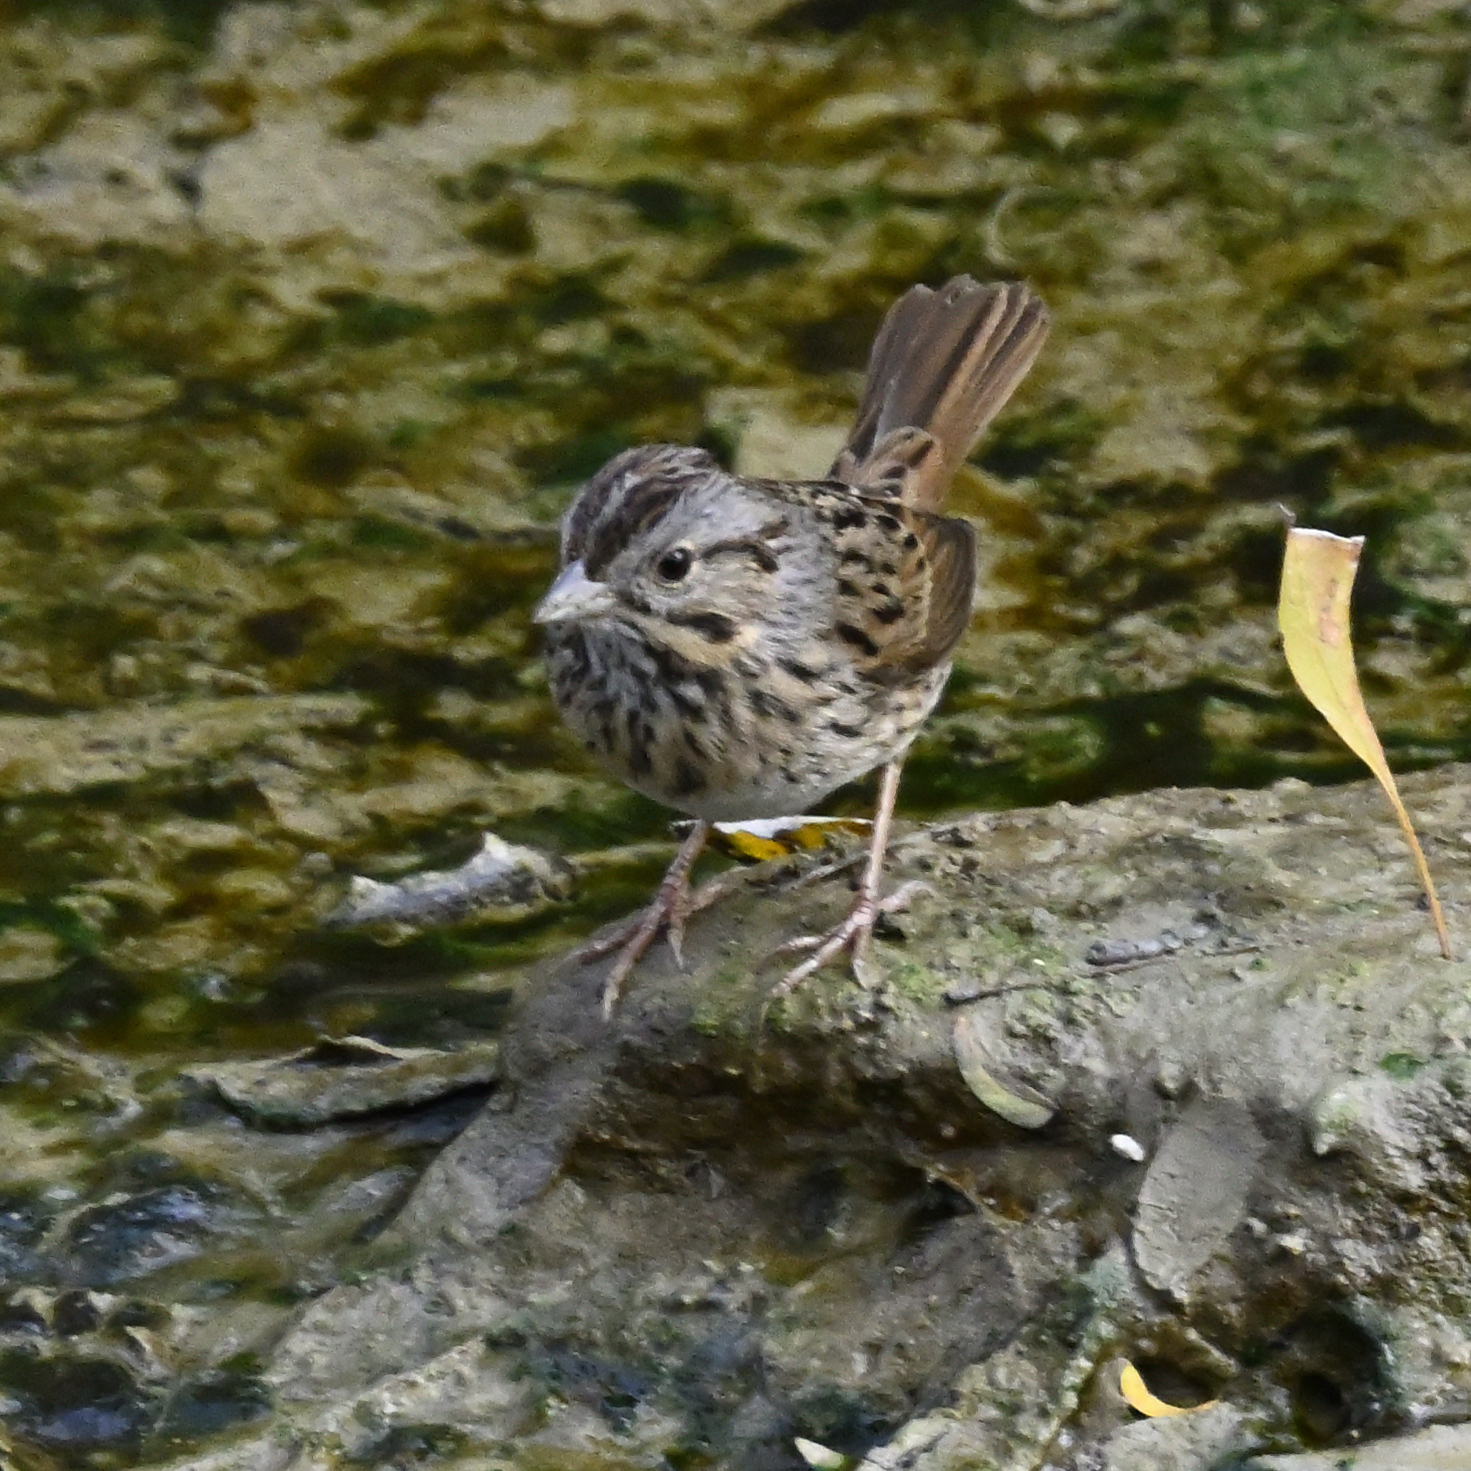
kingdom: Animalia
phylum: Chordata
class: Aves
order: Passeriformes
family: Passerellidae
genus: Melospiza
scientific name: Melospiza lincolnii
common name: Lincoln's sparrow
